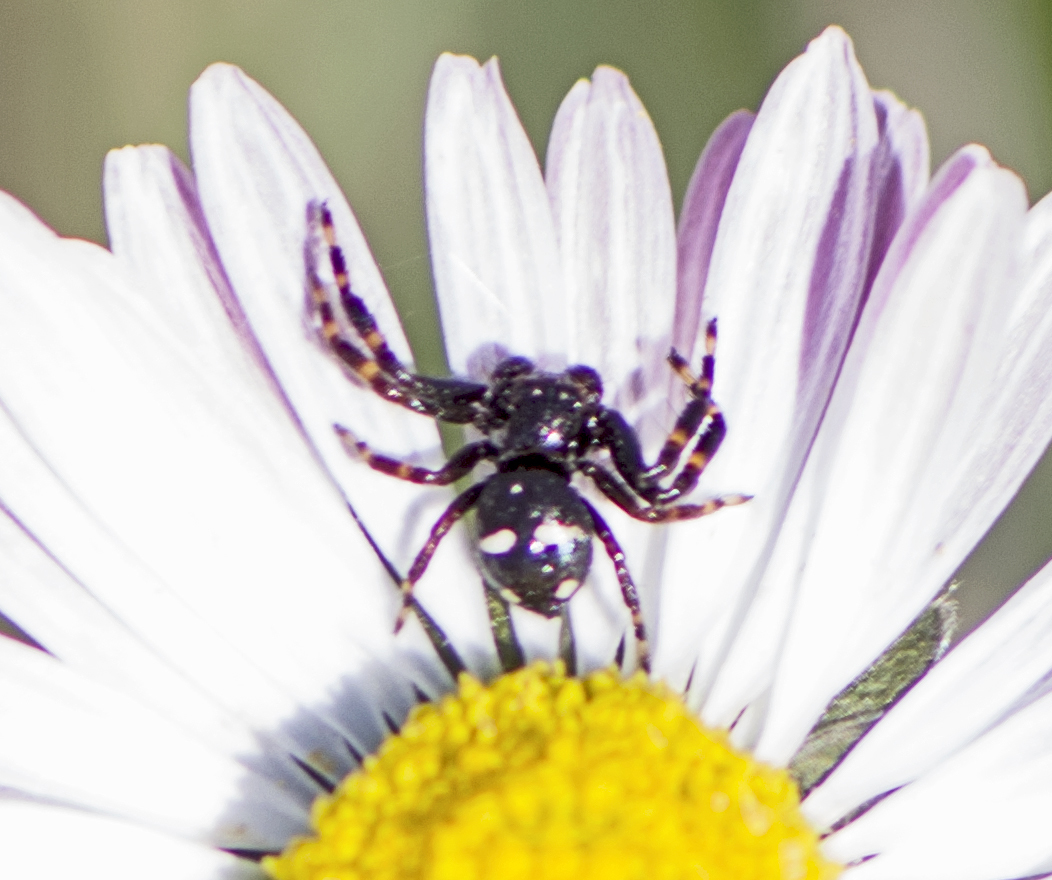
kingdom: Animalia
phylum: Arthropoda
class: Arachnida
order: Araneae
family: Thomisidae
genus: Synema
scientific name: Synema anatolicum
